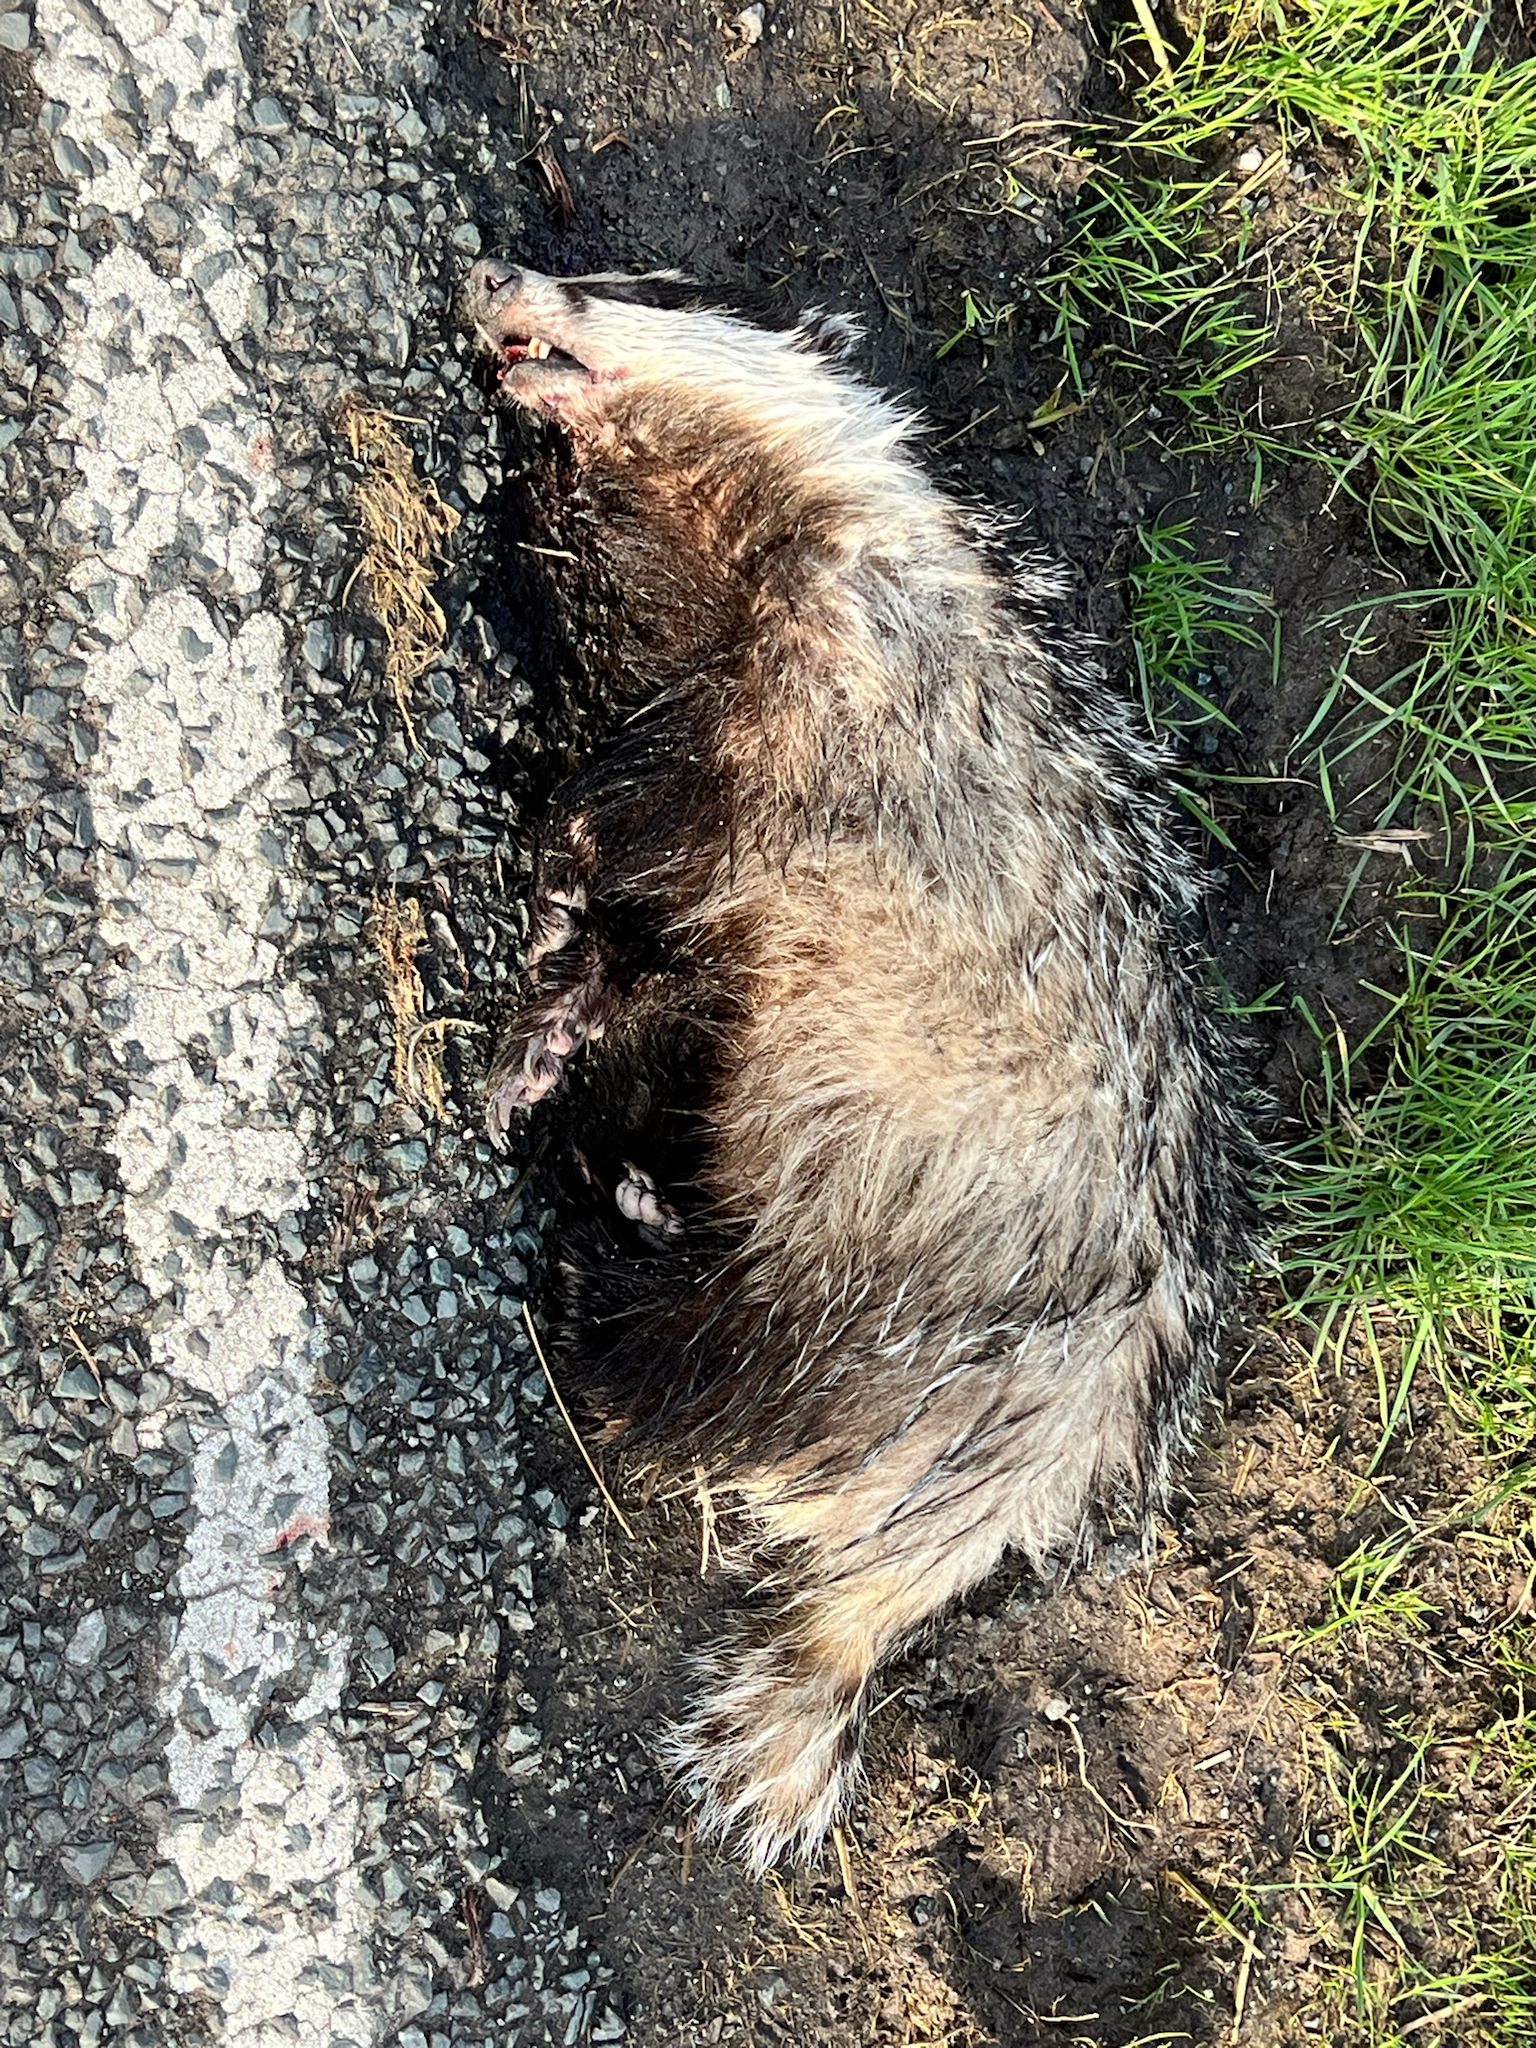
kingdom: Animalia
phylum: Chordata
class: Mammalia
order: Carnivora
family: Mustelidae
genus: Meles
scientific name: Meles meles
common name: Eurasian badger
